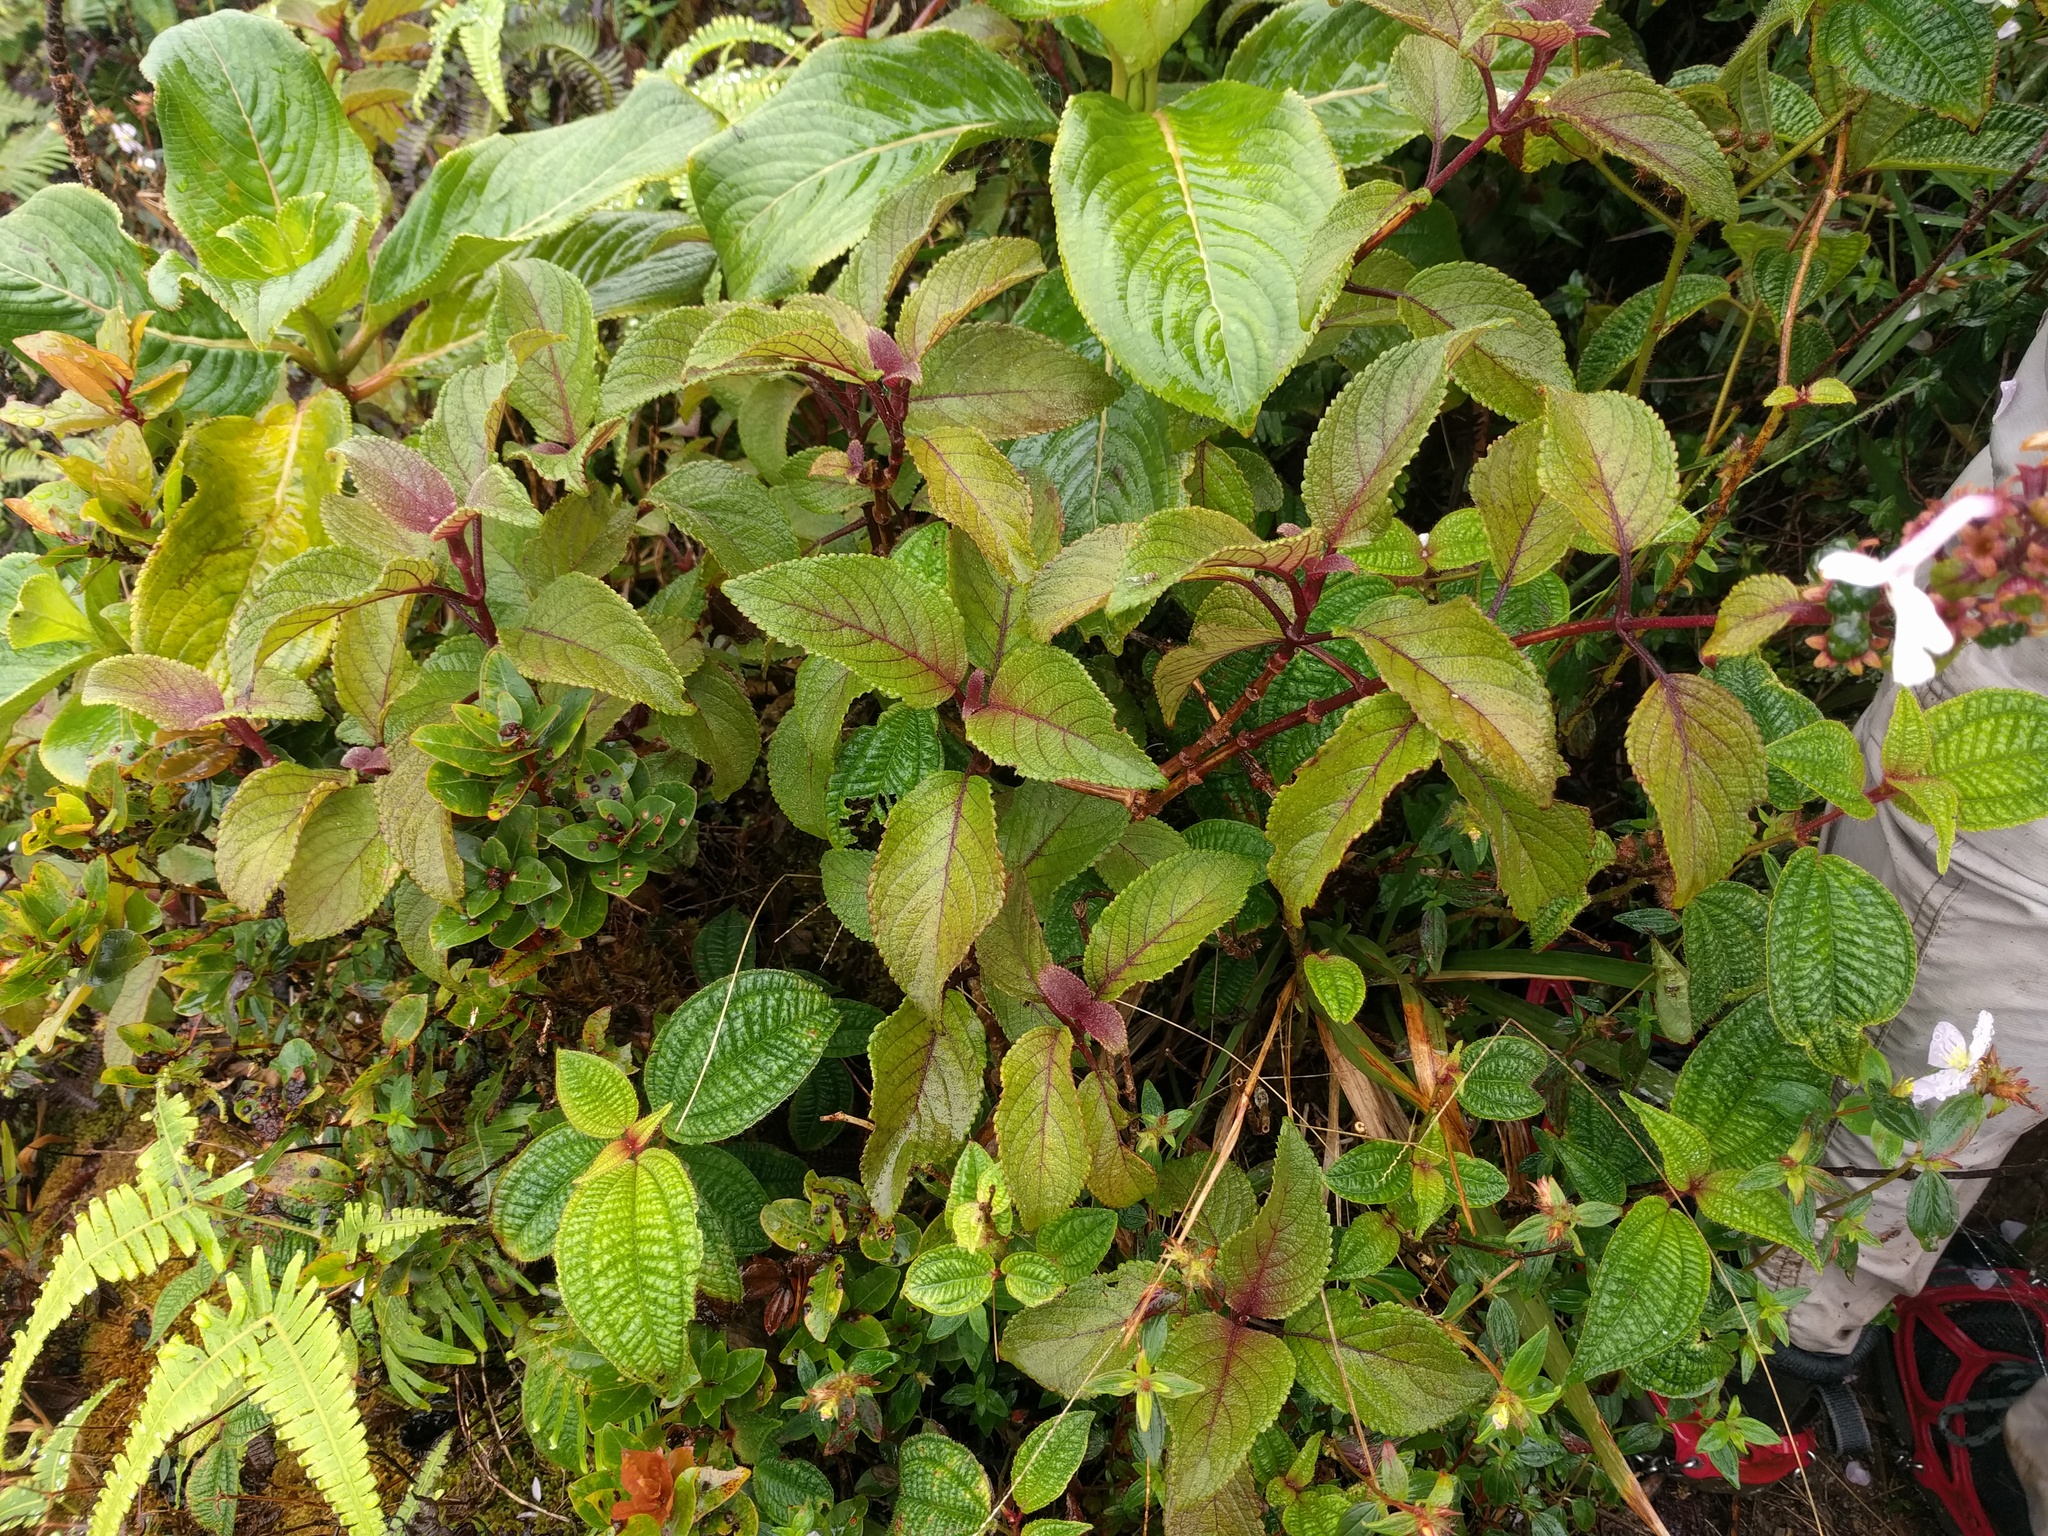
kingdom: Plantae
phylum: Tracheophyta
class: Magnoliopsida
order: Lamiales
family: Lamiaceae
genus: Phyllostegia
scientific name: Phyllostegia grandiflora
